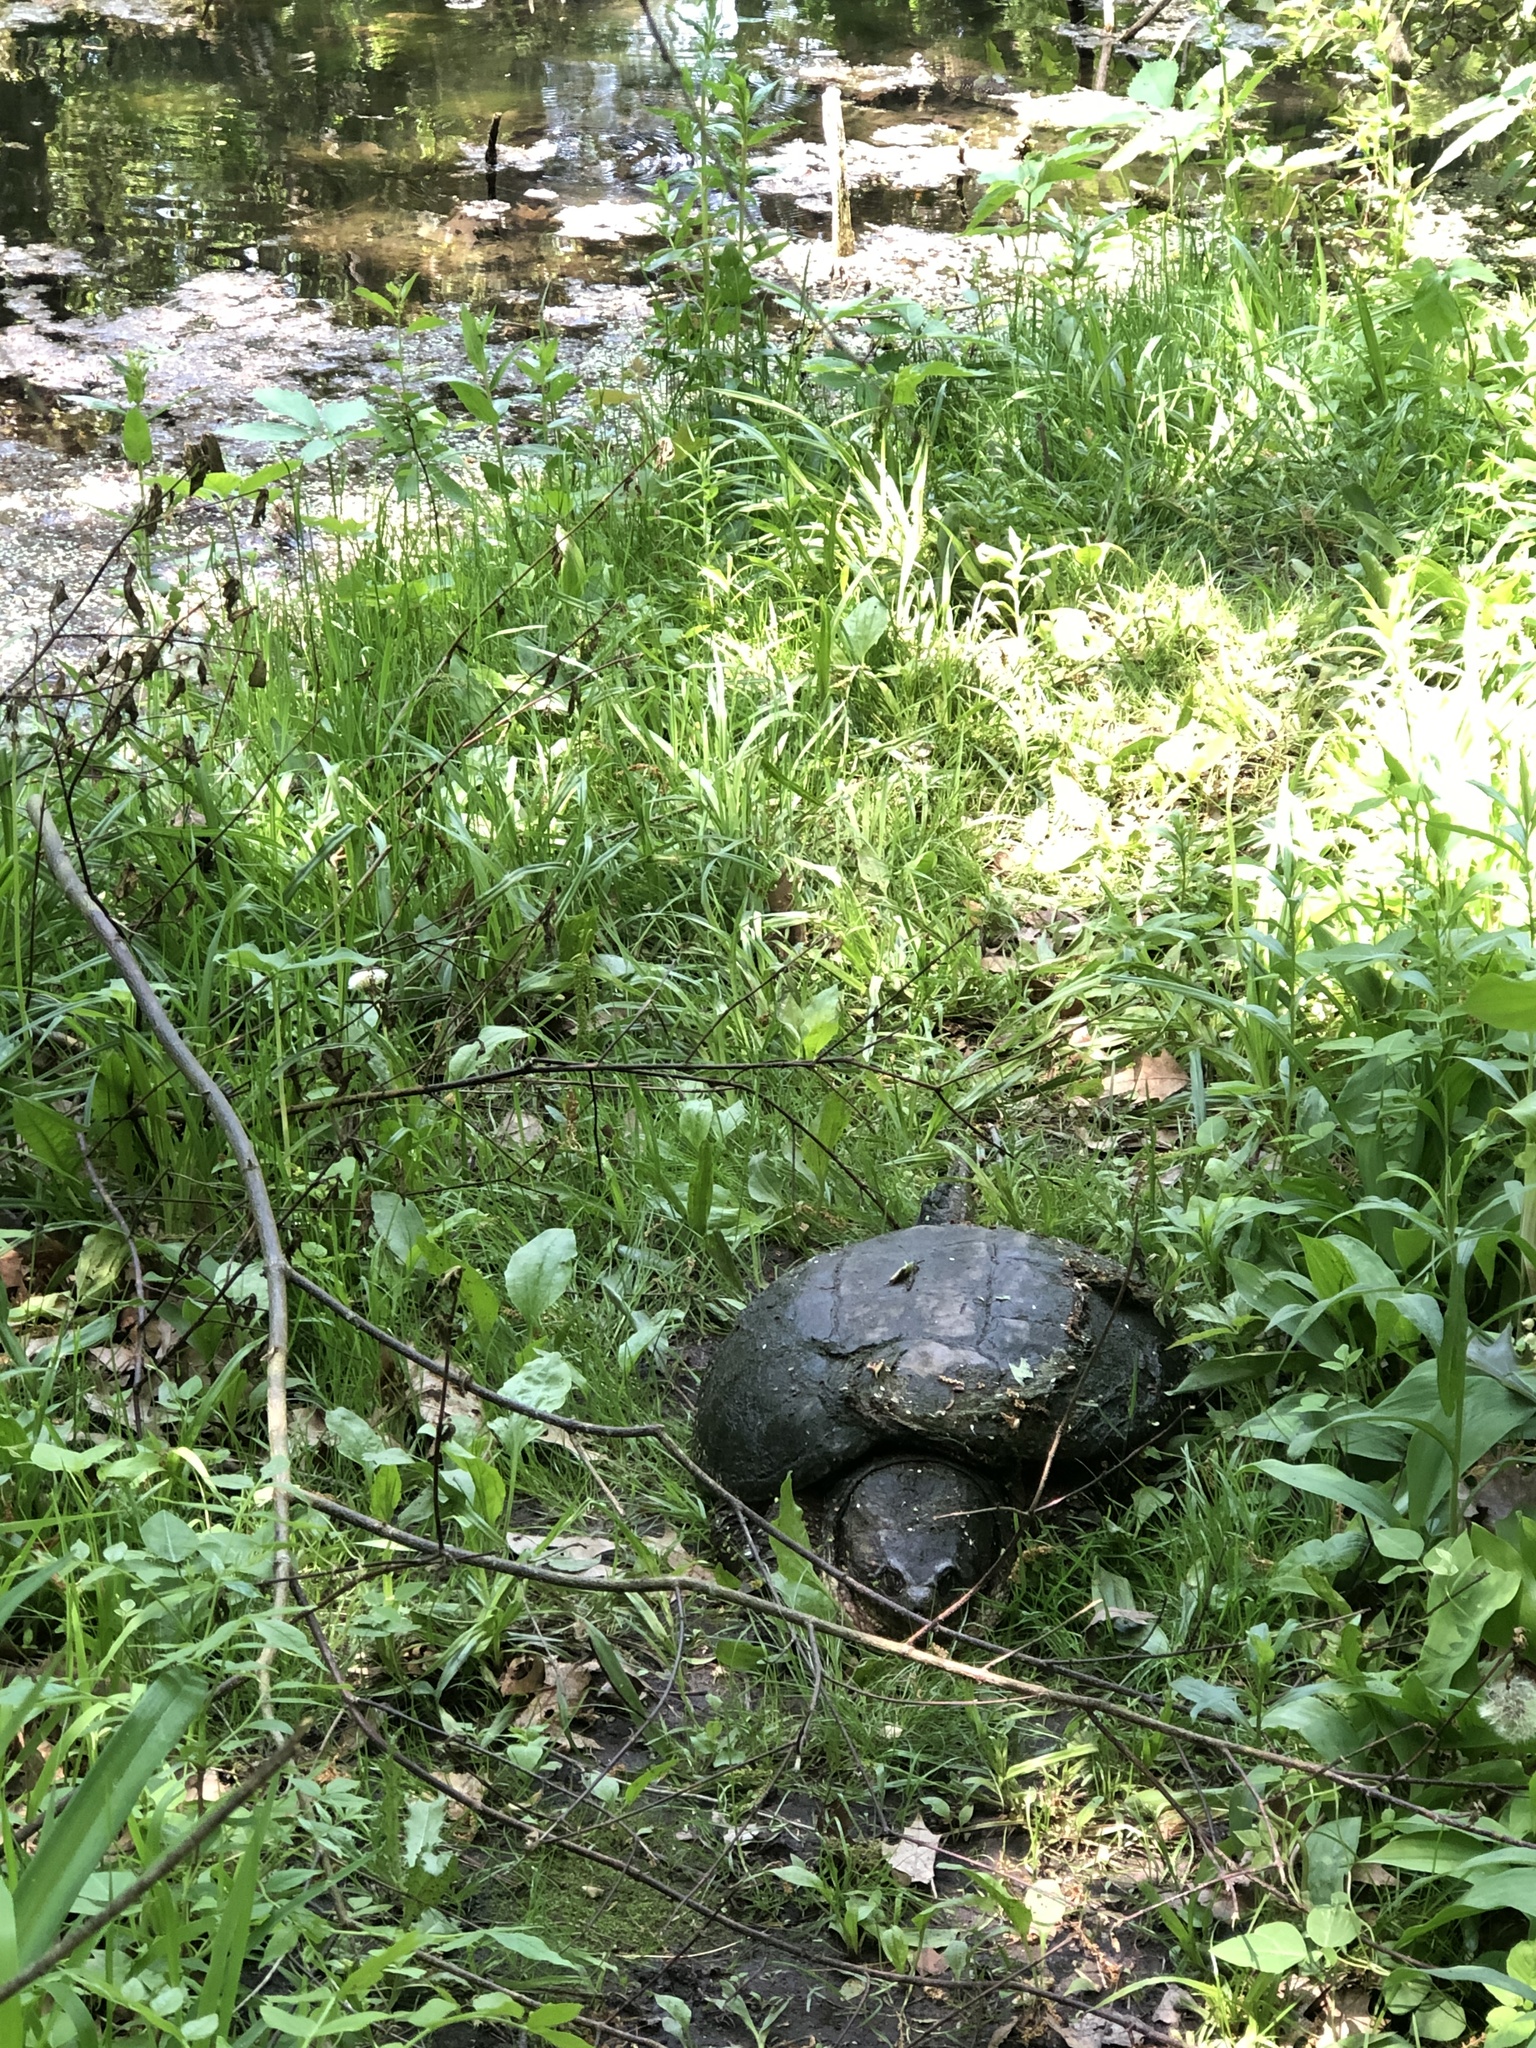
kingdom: Animalia
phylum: Chordata
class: Testudines
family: Chelydridae
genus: Chelydra
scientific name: Chelydra serpentina
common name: Common snapping turtle
